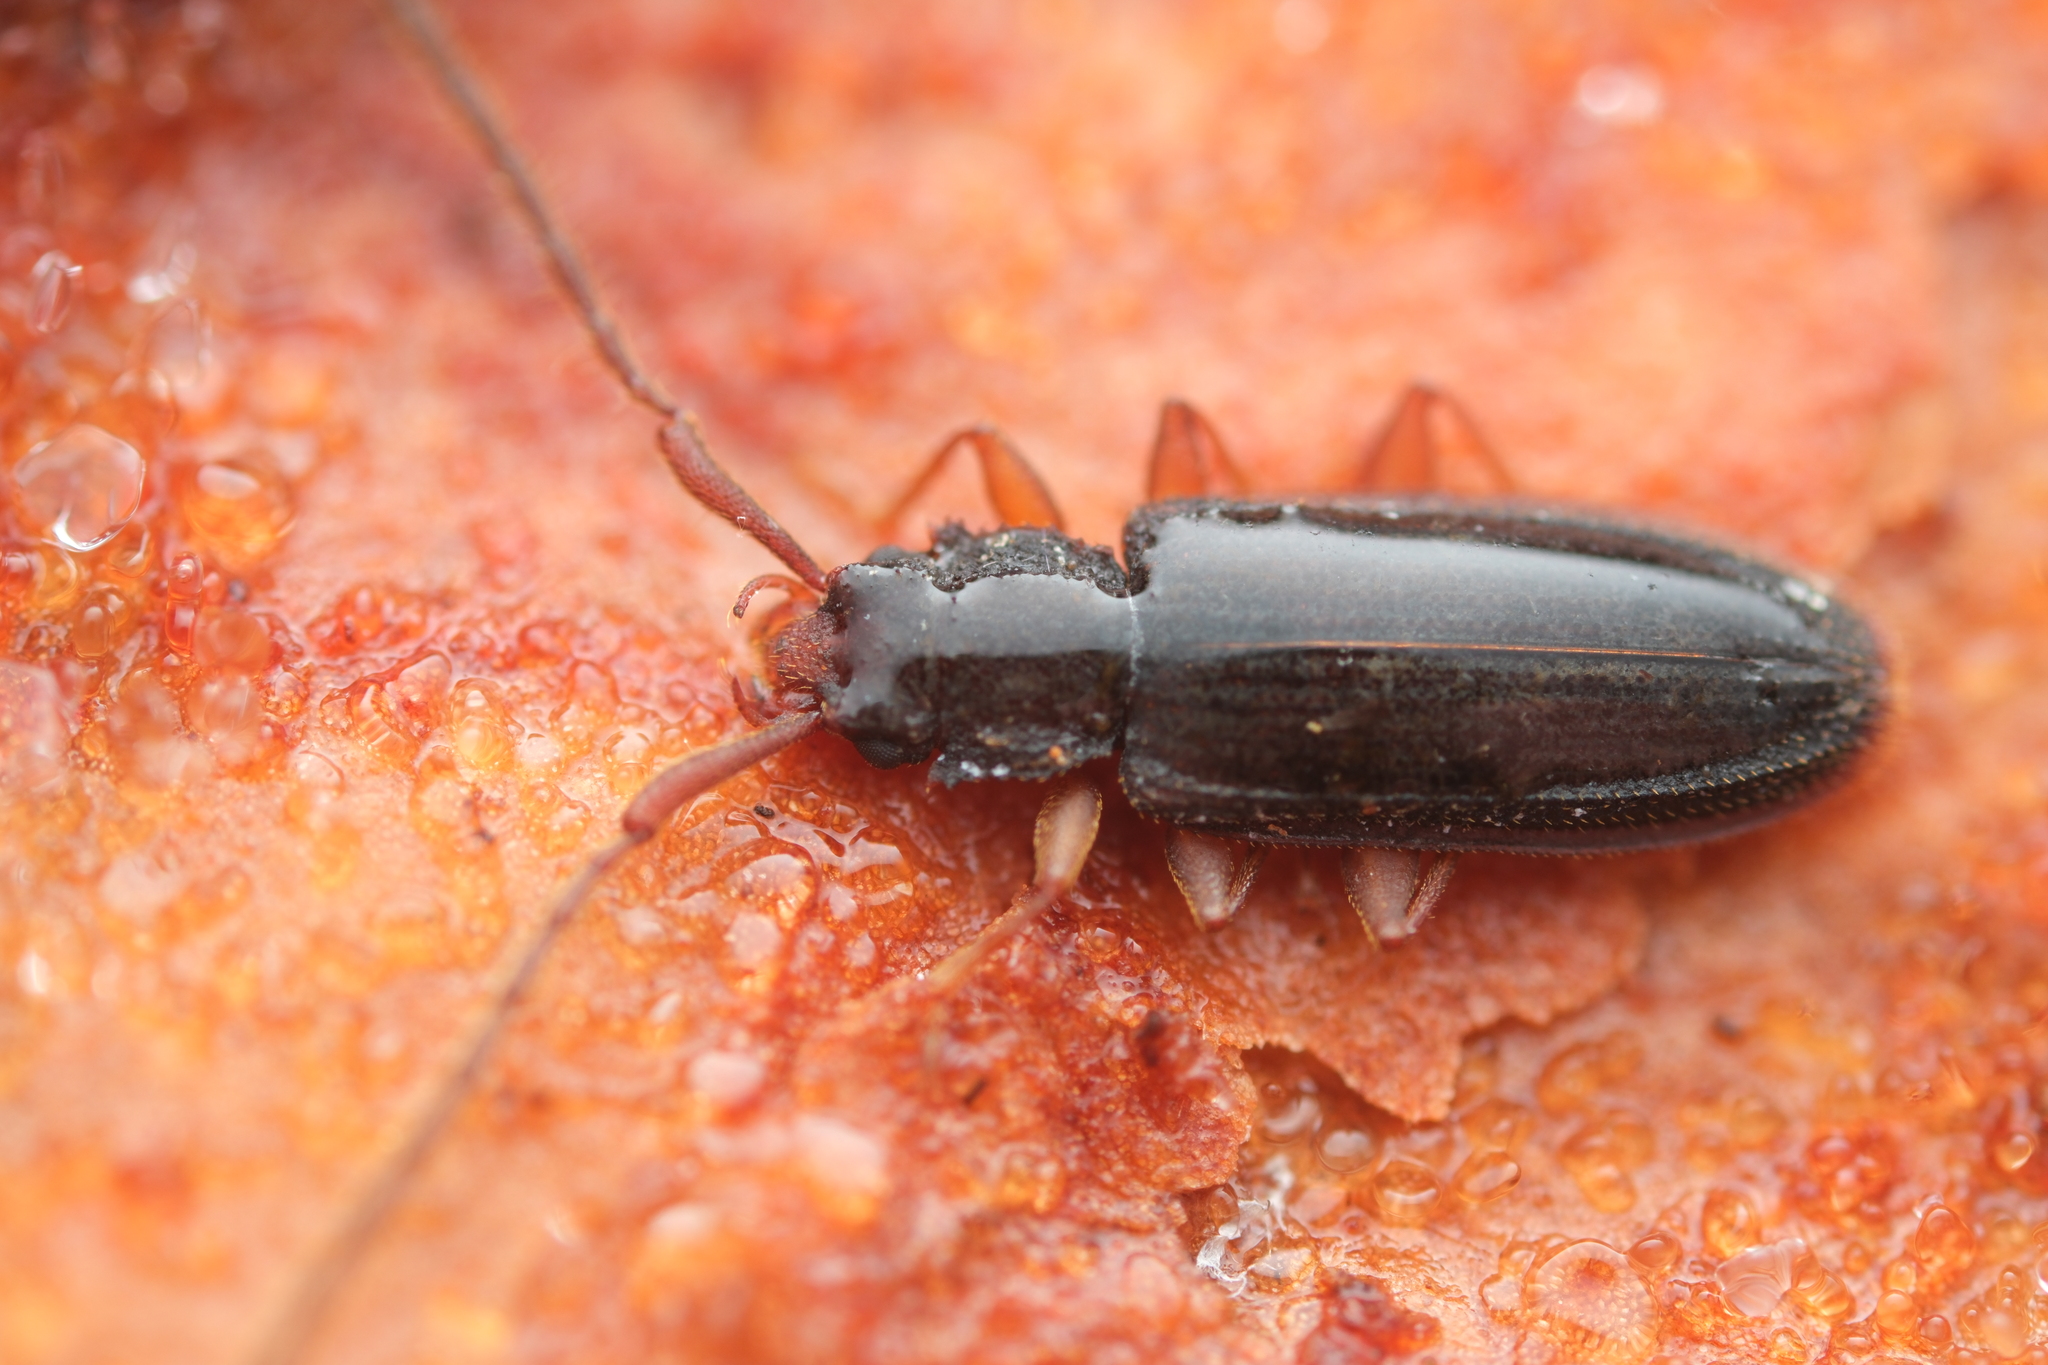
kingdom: Animalia
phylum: Arthropoda
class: Insecta
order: Coleoptera
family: Silvanidae
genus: Uleiota
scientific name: Uleiota planatus
